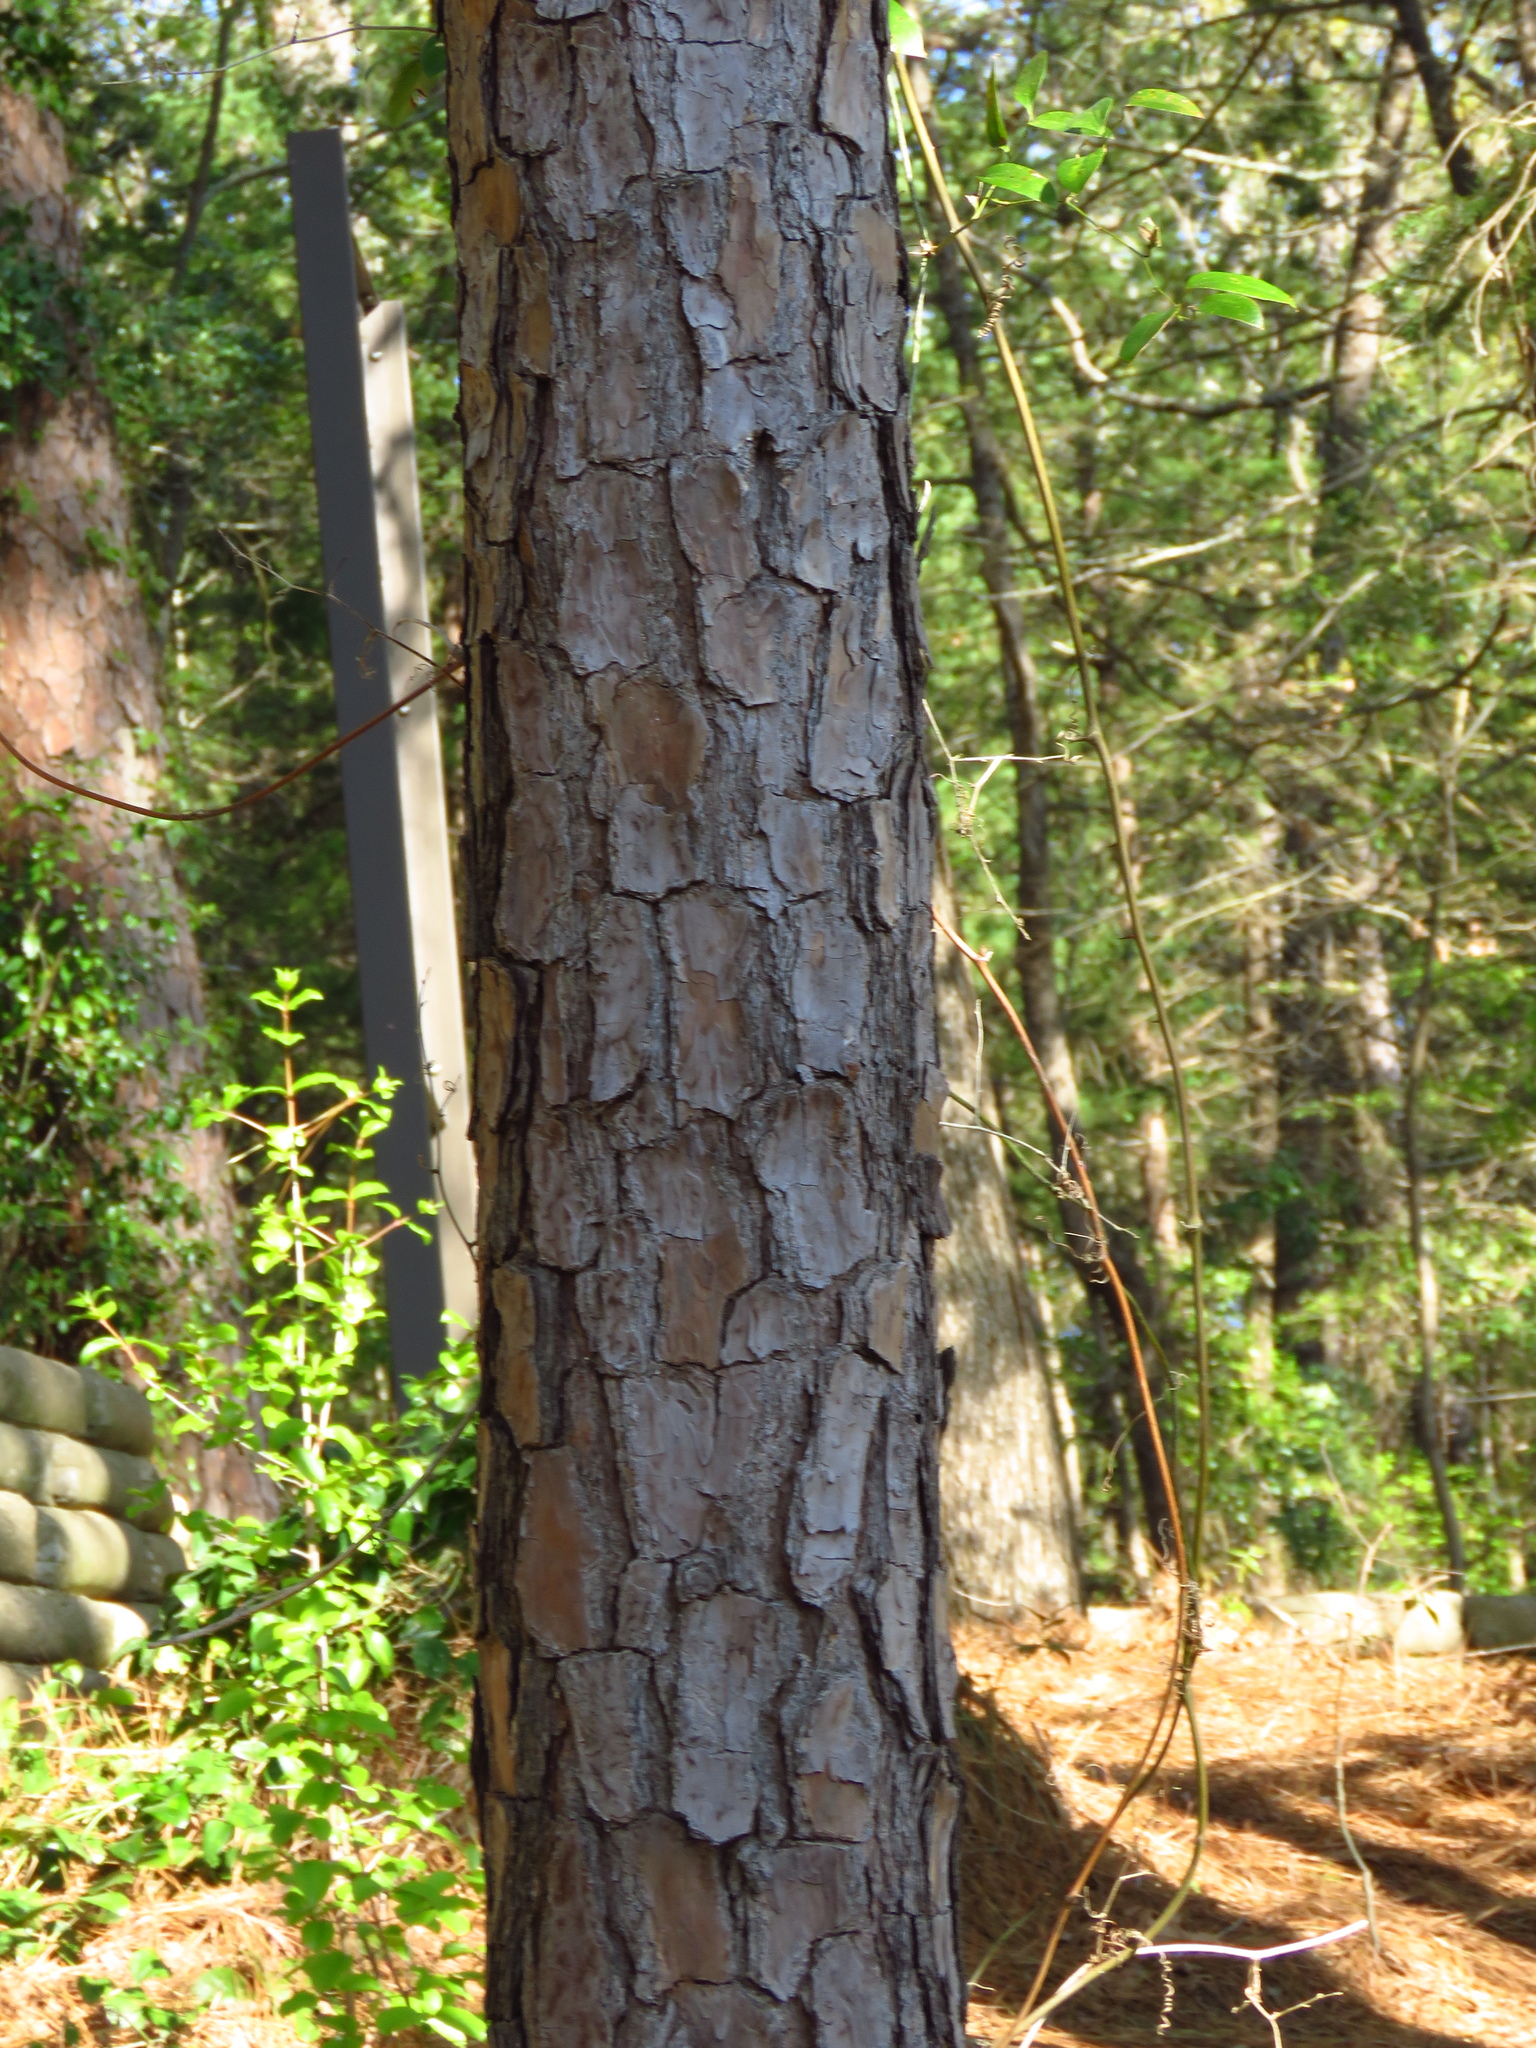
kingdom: Plantae
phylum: Tracheophyta
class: Pinopsida
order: Pinales
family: Pinaceae
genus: Pinus
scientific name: Pinus taeda
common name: Loblolly pine
